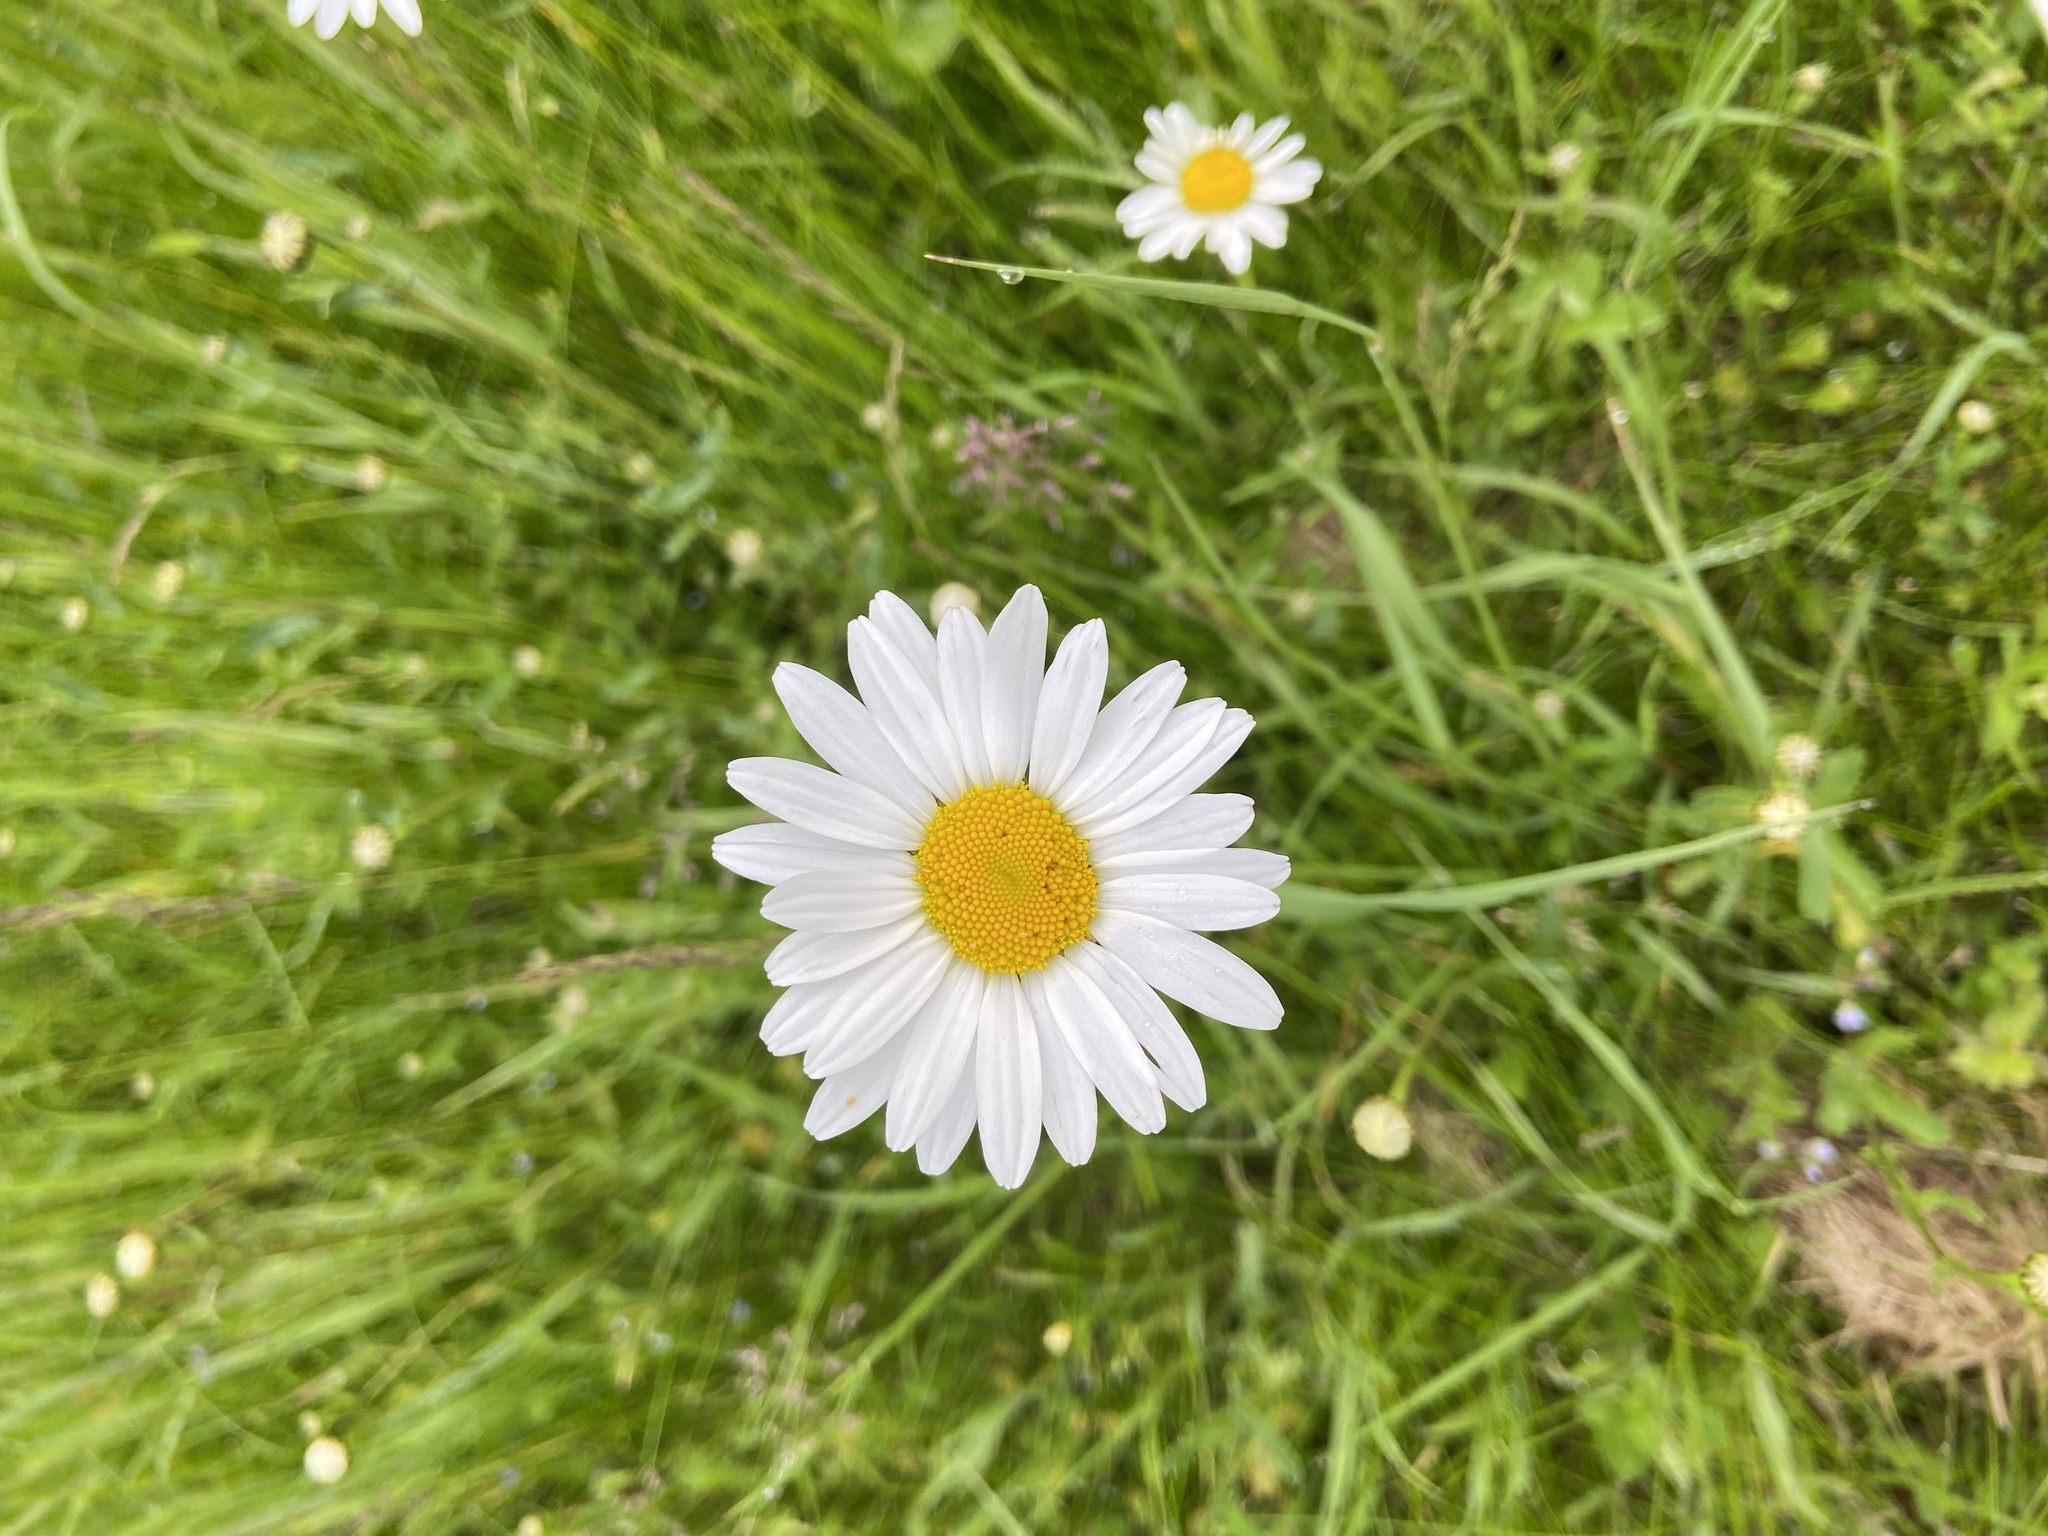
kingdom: Plantae
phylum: Tracheophyta
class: Magnoliopsida
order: Asterales
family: Asteraceae
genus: Leucanthemum
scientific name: Leucanthemum vulgare
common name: Oxeye daisy
